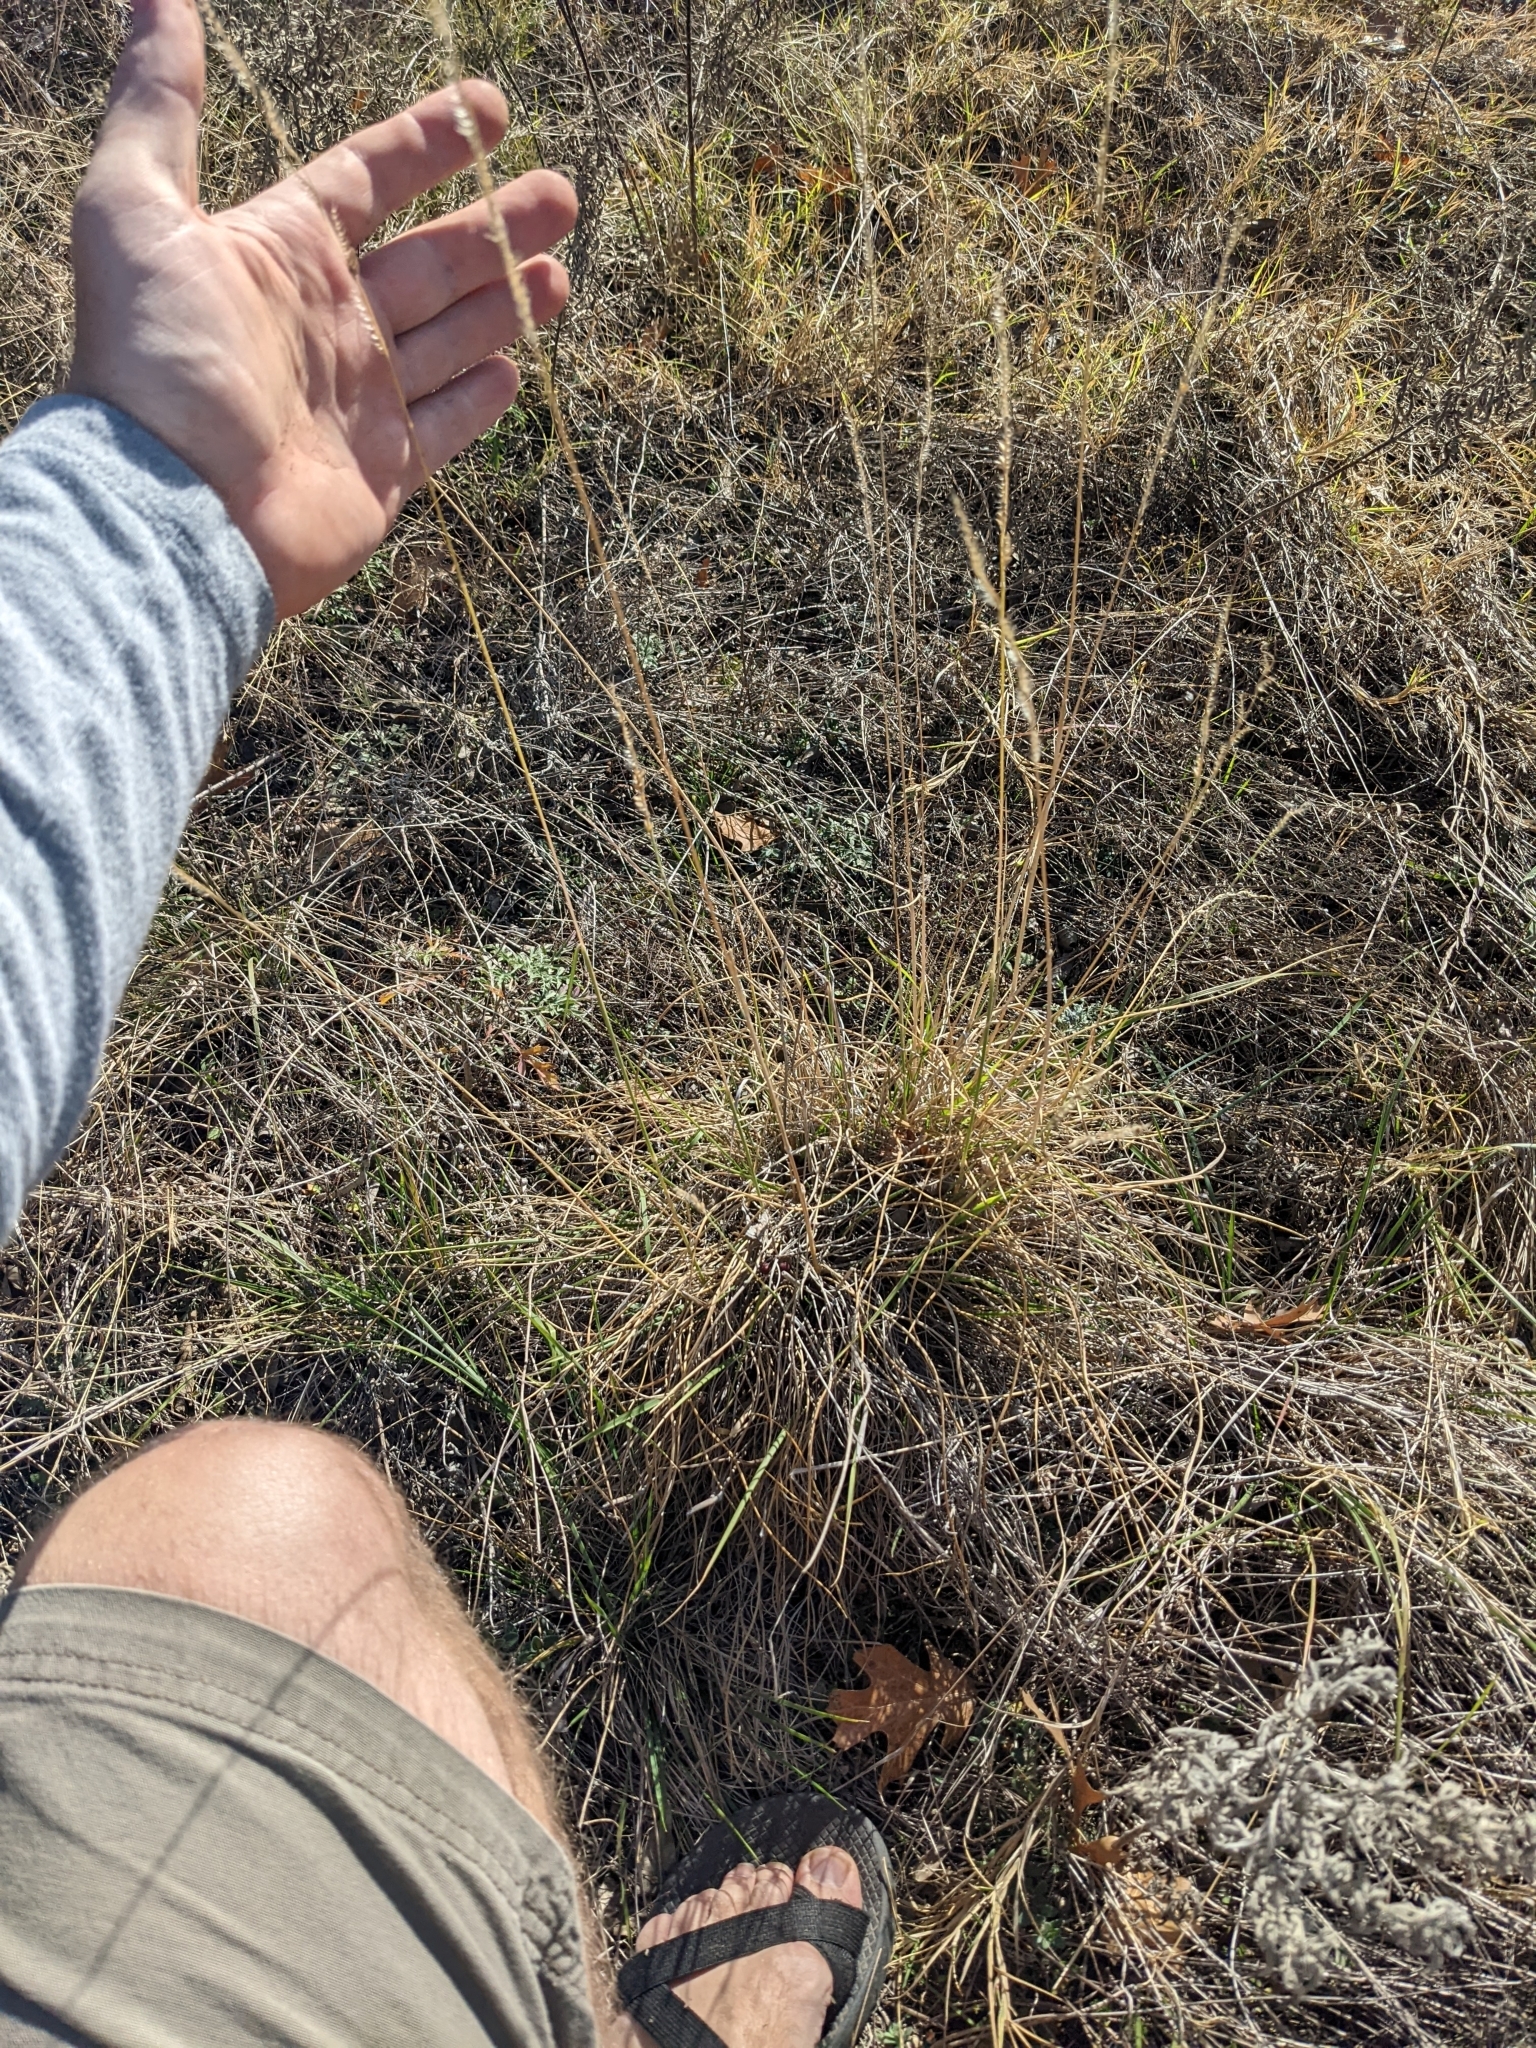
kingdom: Plantae
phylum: Tracheophyta
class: Liliopsida
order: Poales
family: Poaceae
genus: Eriochloa
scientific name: Eriochloa sericea
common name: Texas cup grass
